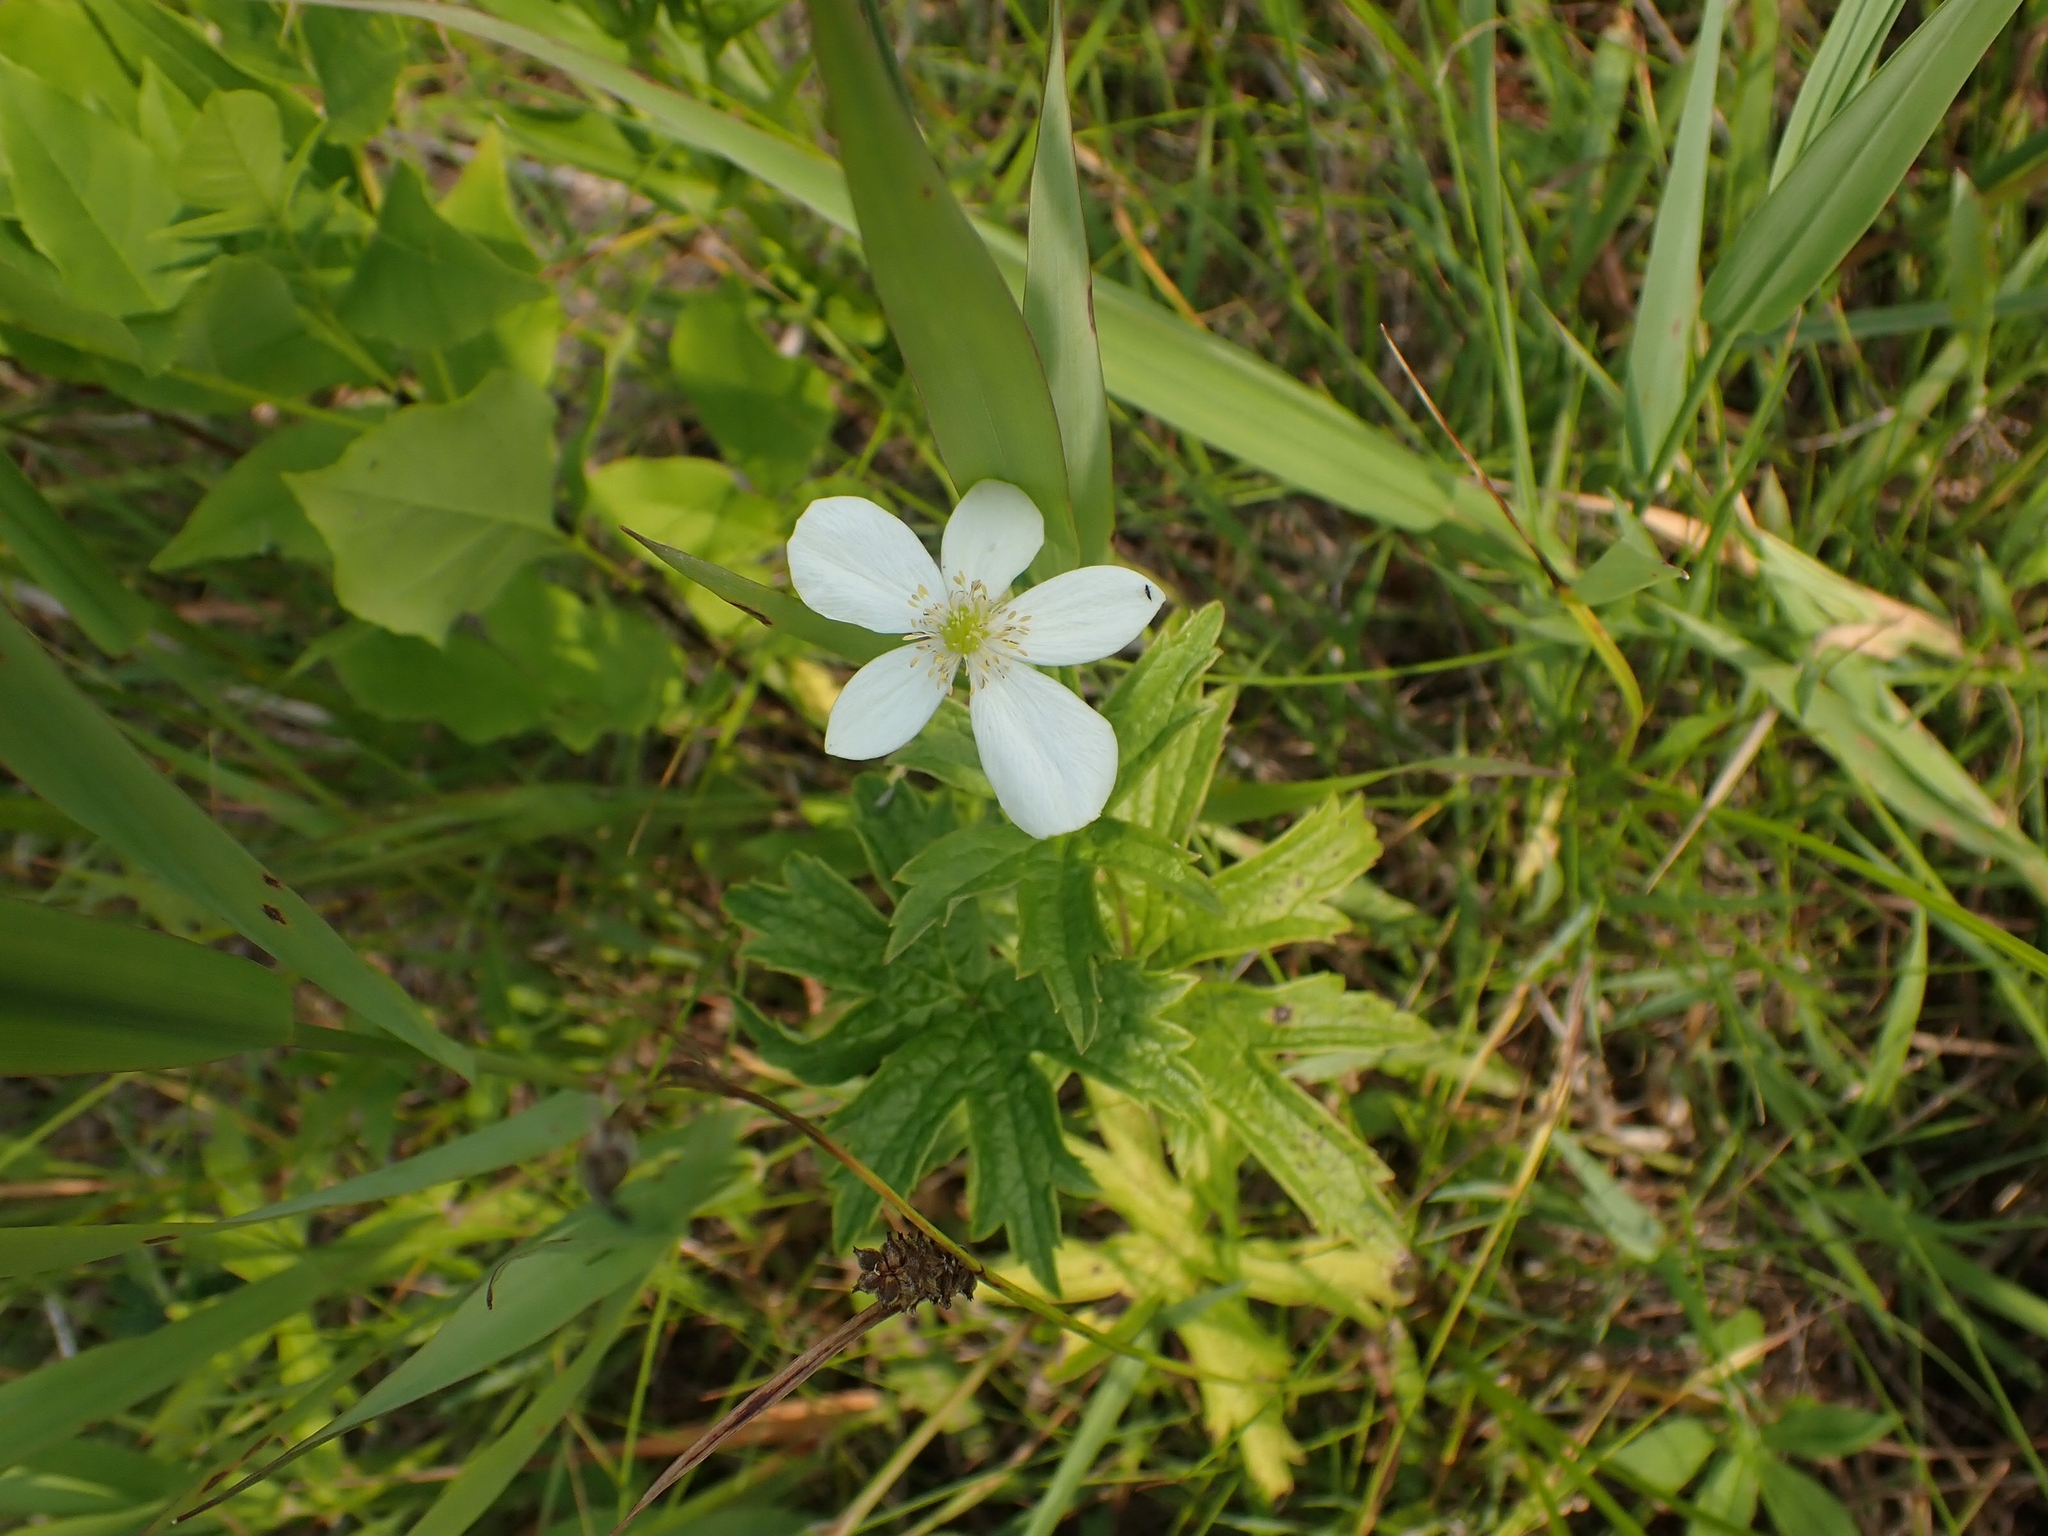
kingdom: Plantae
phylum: Tracheophyta
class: Magnoliopsida
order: Ranunculales
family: Ranunculaceae
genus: Anemonastrum
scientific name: Anemonastrum canadense
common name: Canada anemone
